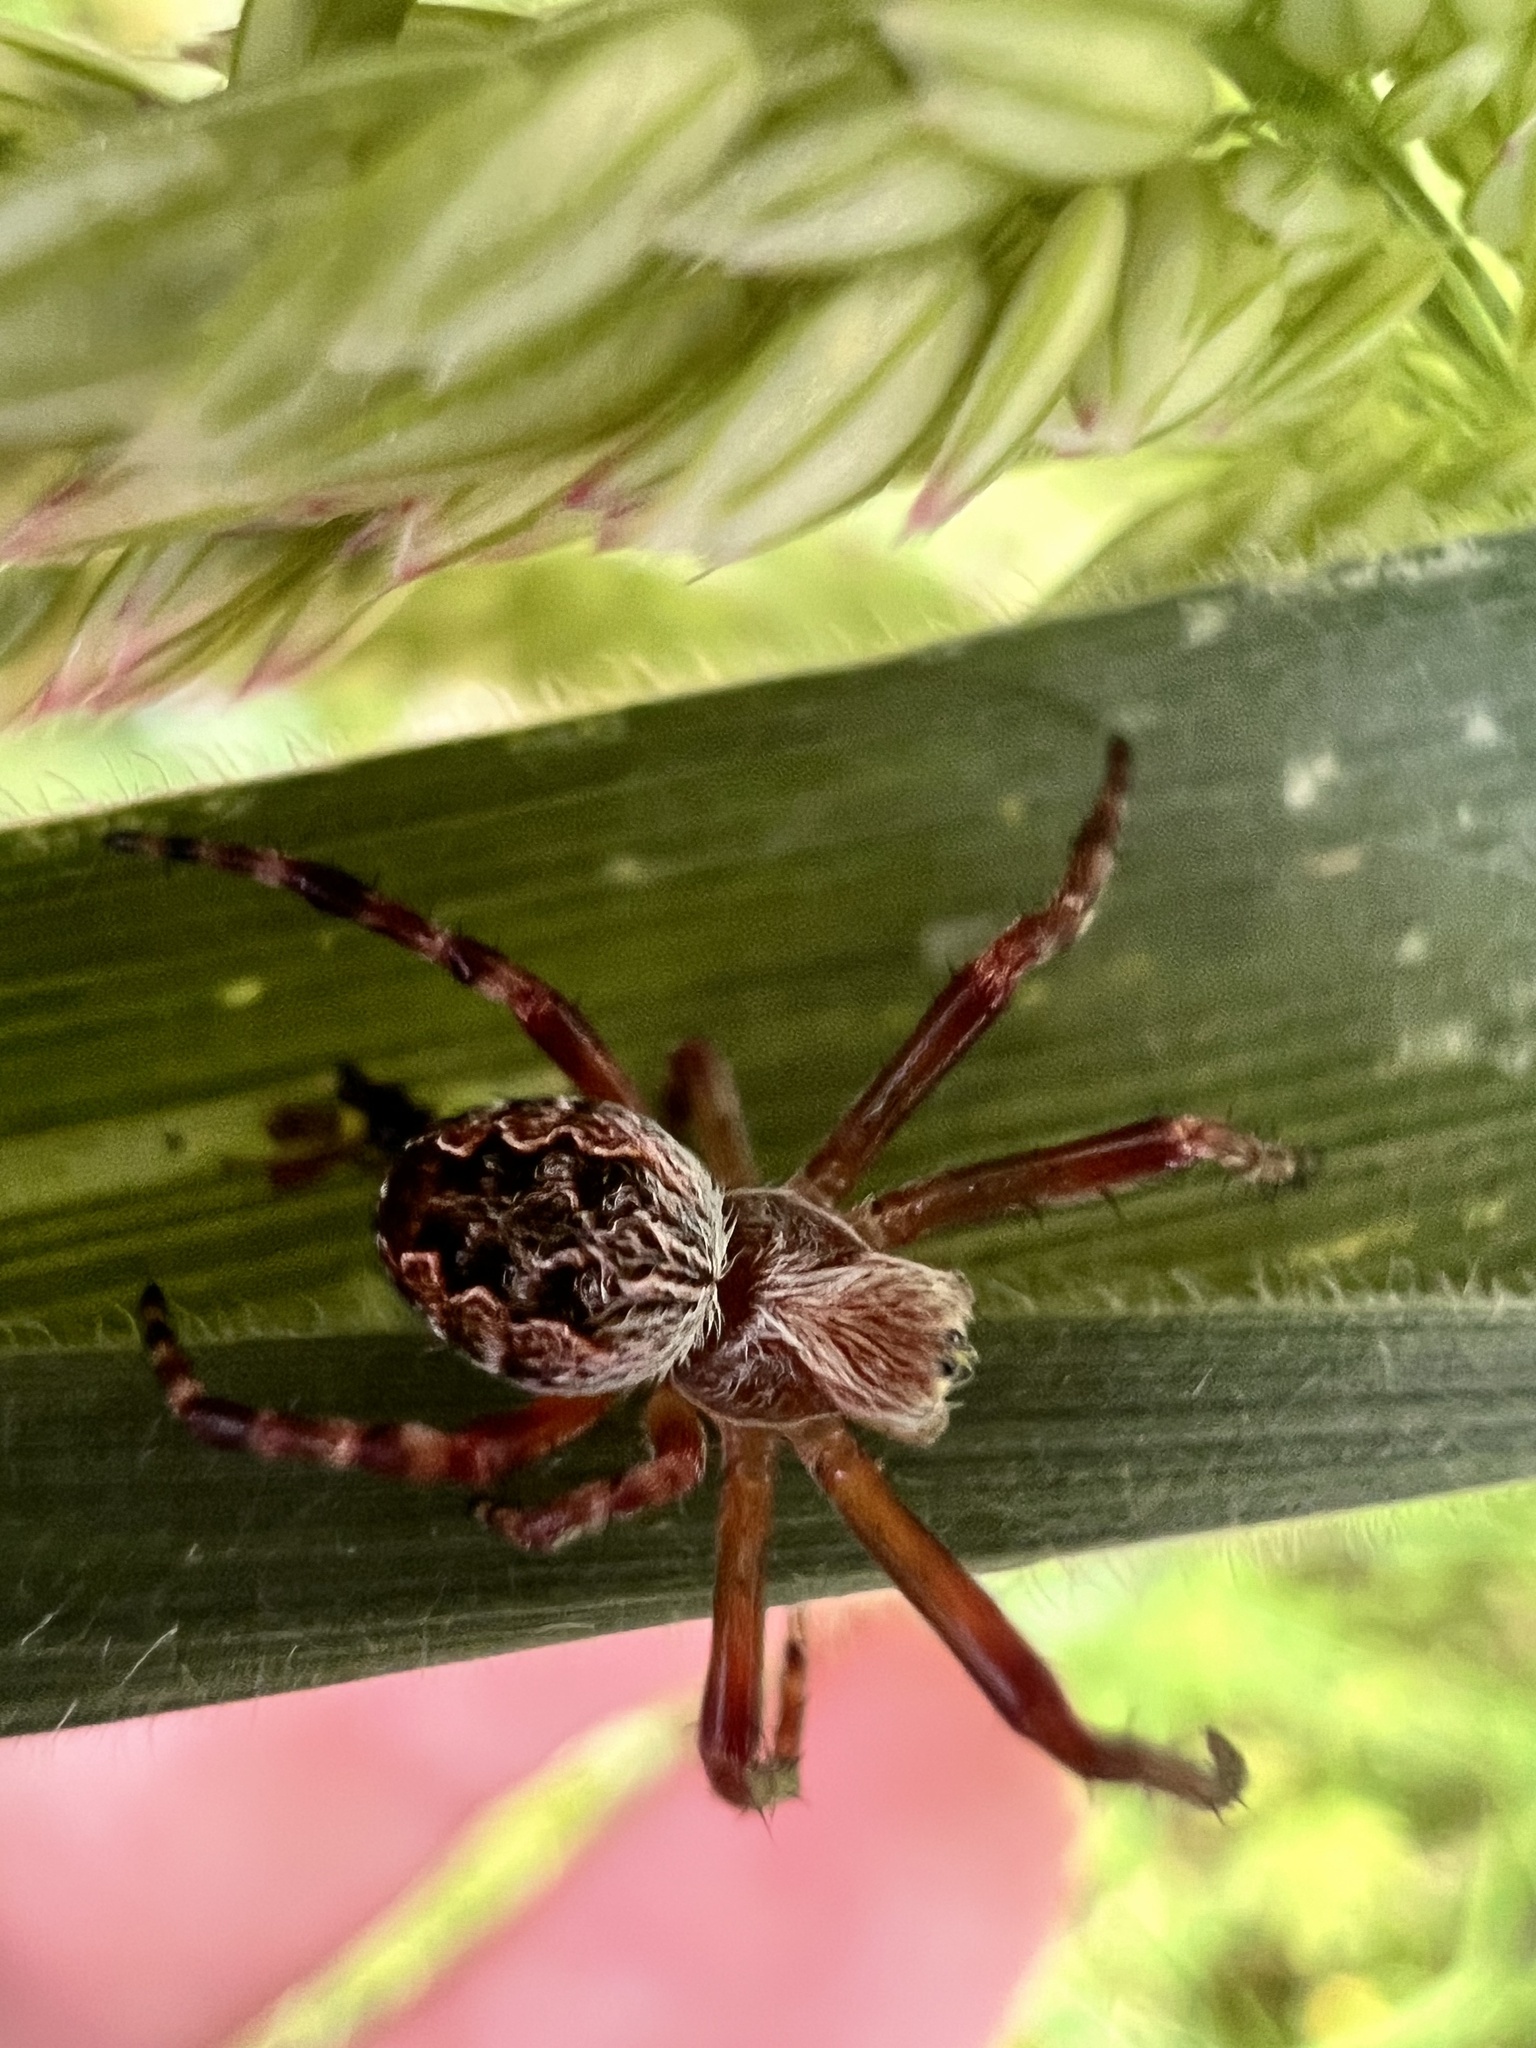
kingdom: Animalia
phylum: Arthropoda
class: Arachnida
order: Araneae
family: Araneidae
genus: Salsa
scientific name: Salsa fuliginata
